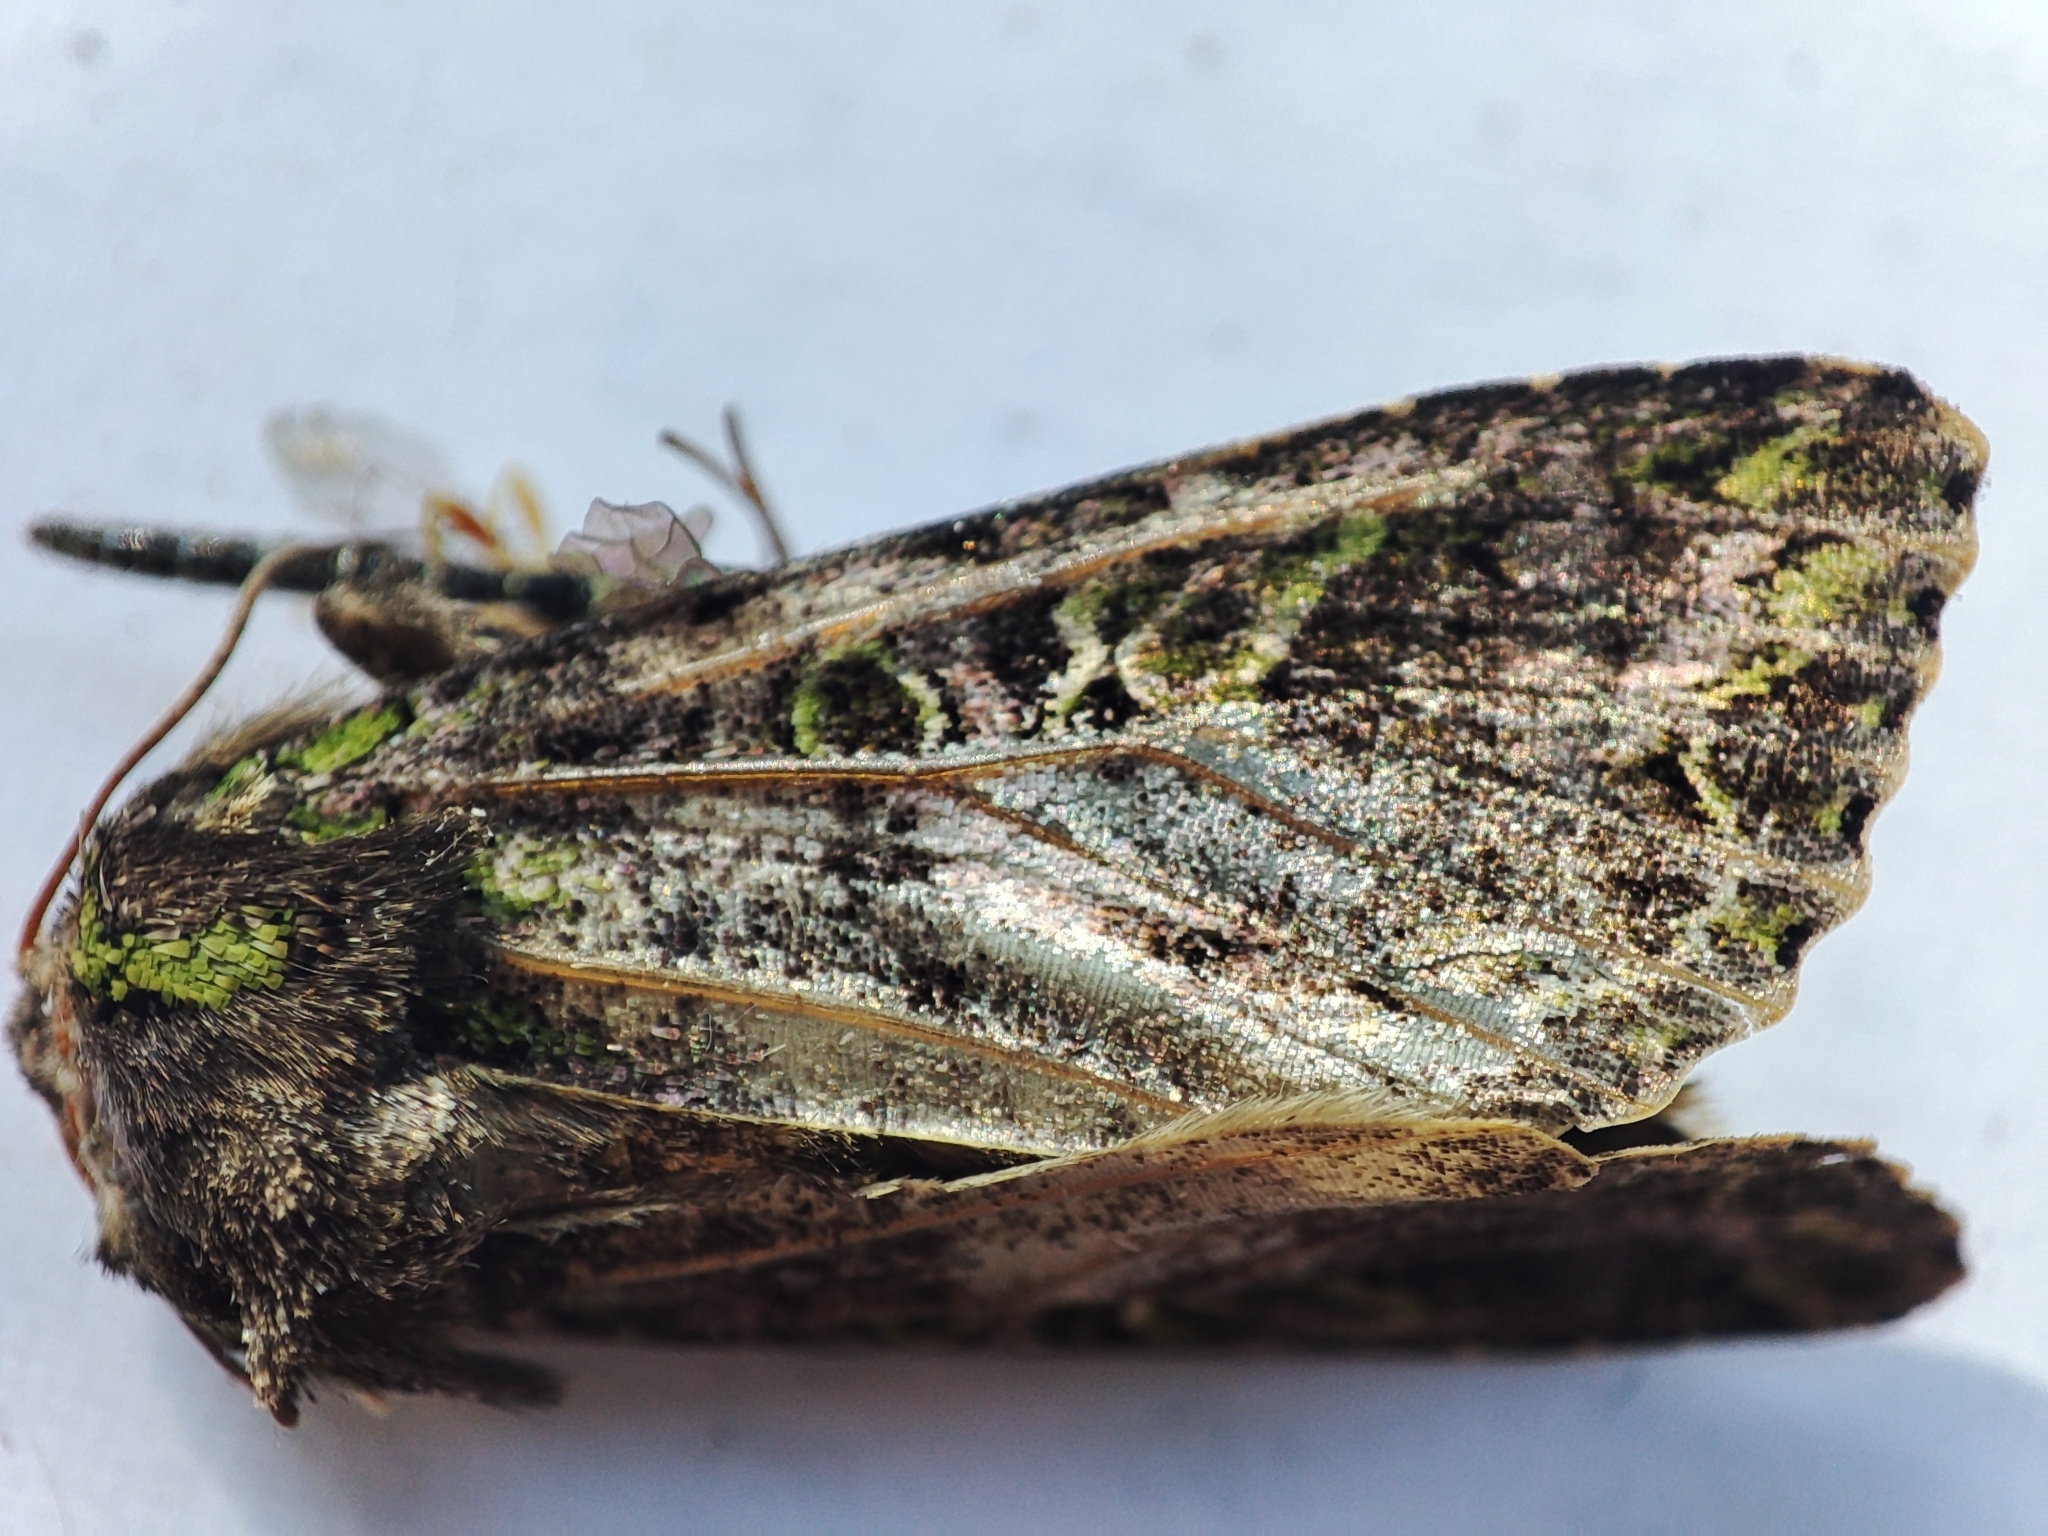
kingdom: Animalia
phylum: Arthropoda
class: Insecta
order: Lepidoptera
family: Noctuidae
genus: Trachea
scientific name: Trachea atriplicis
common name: Orache moth
